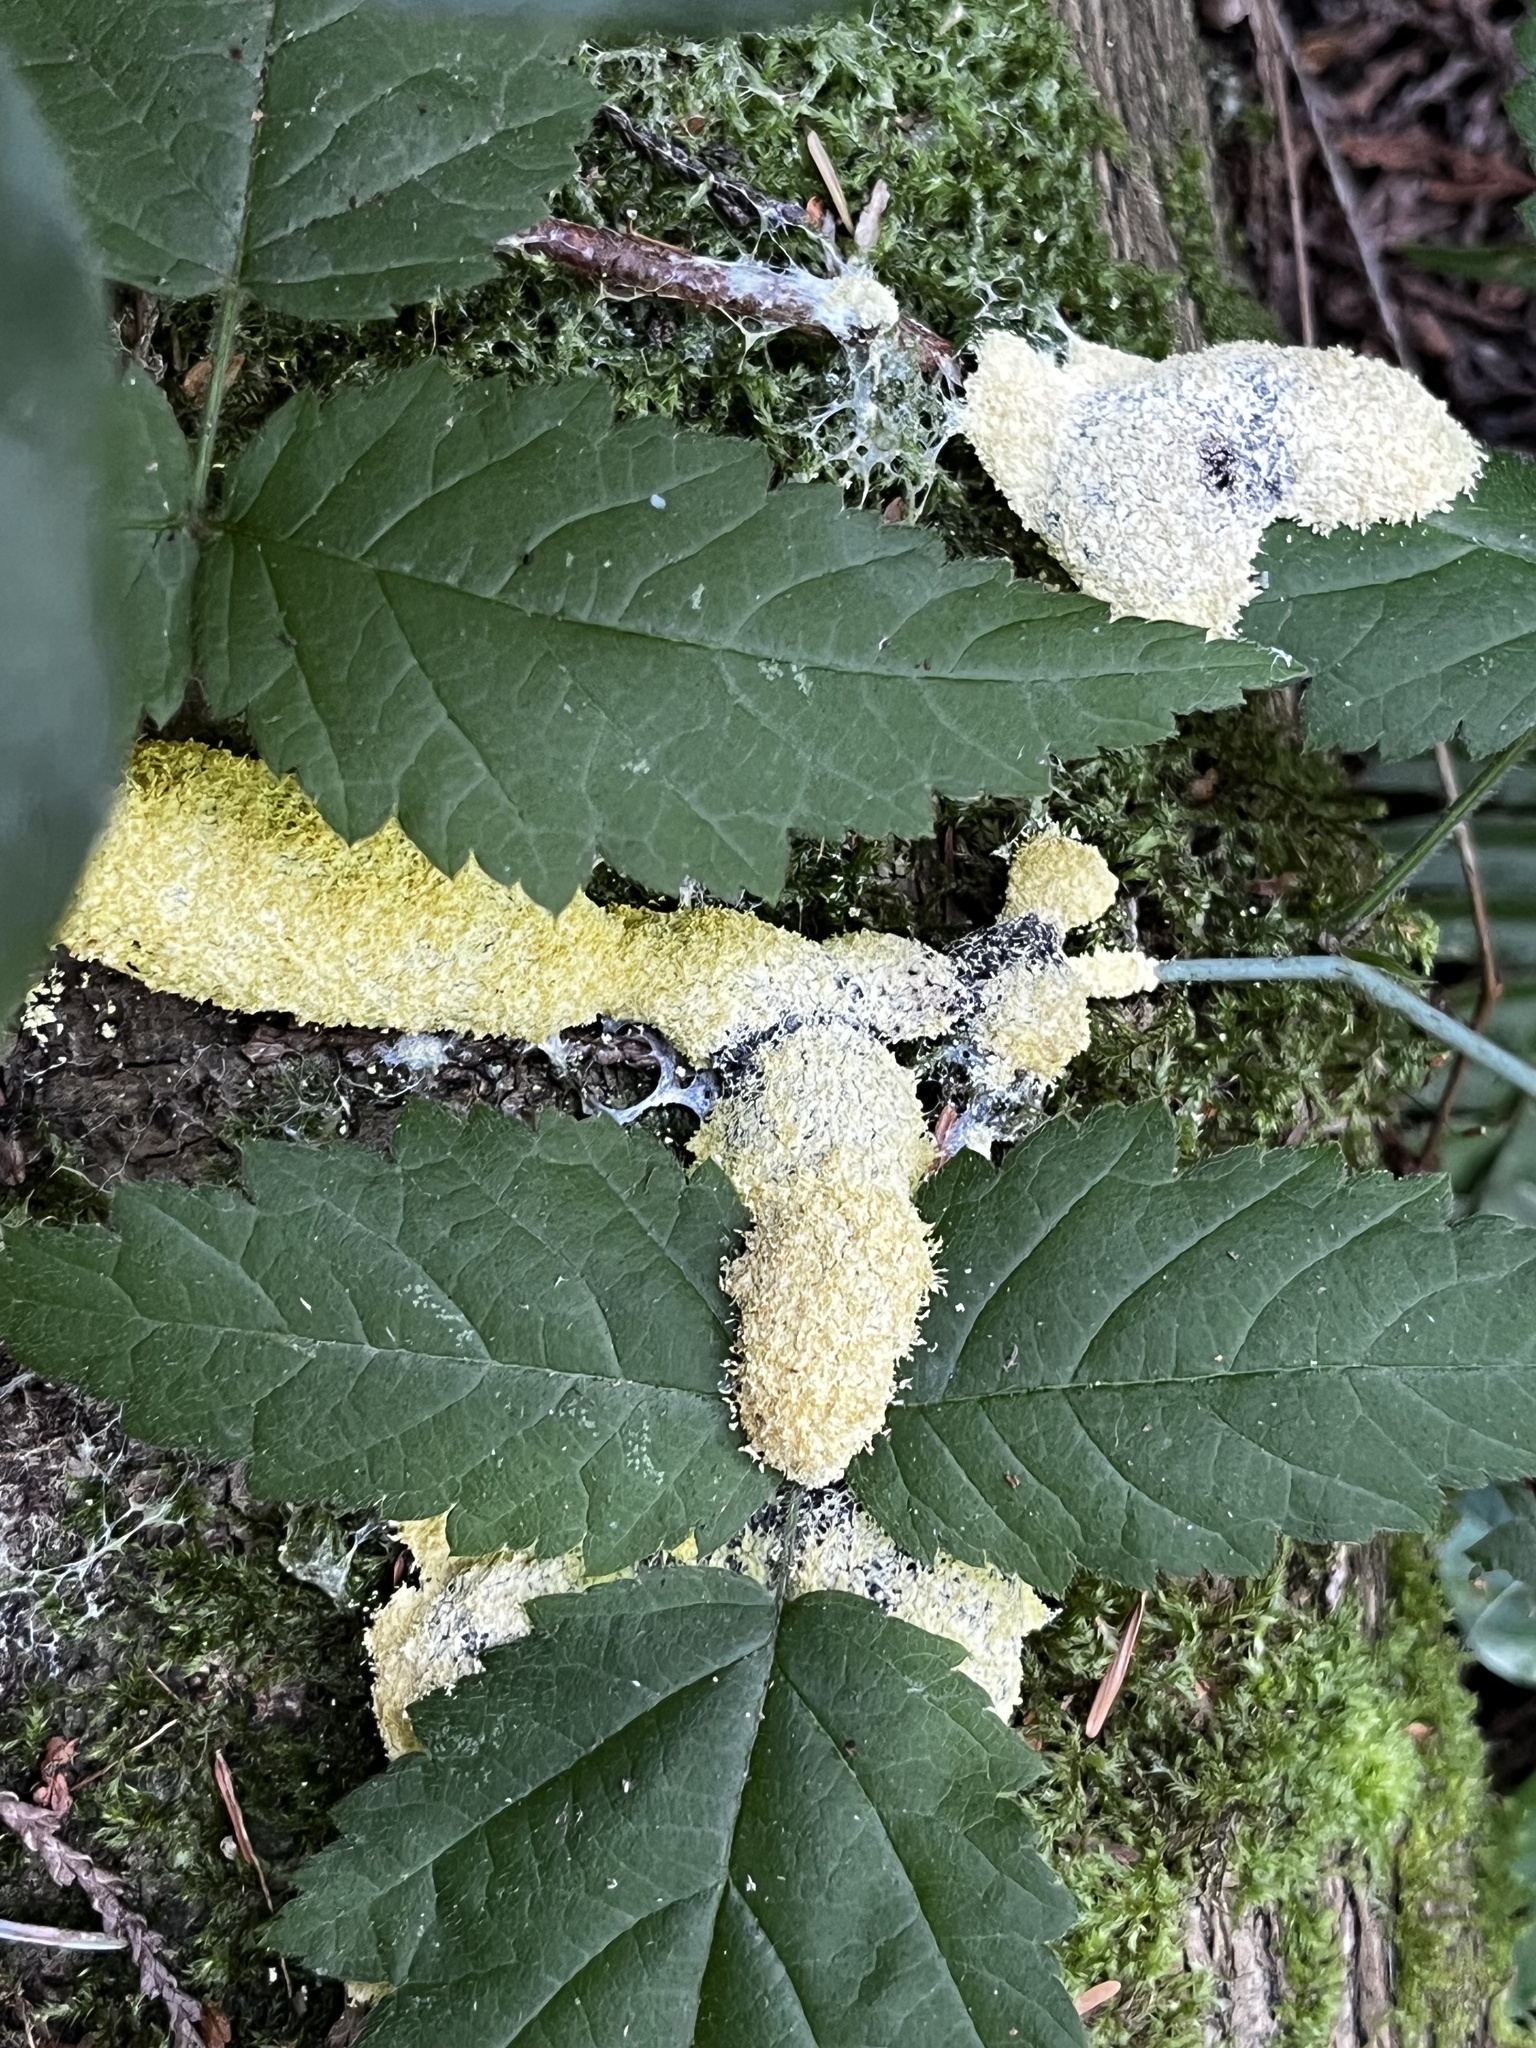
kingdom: Protozoa
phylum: Mycetozoa
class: Myxomycetes
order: Physarales
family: Physaraceae
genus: Fuligo
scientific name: Fuligo septica
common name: Dog vomit slime mold
